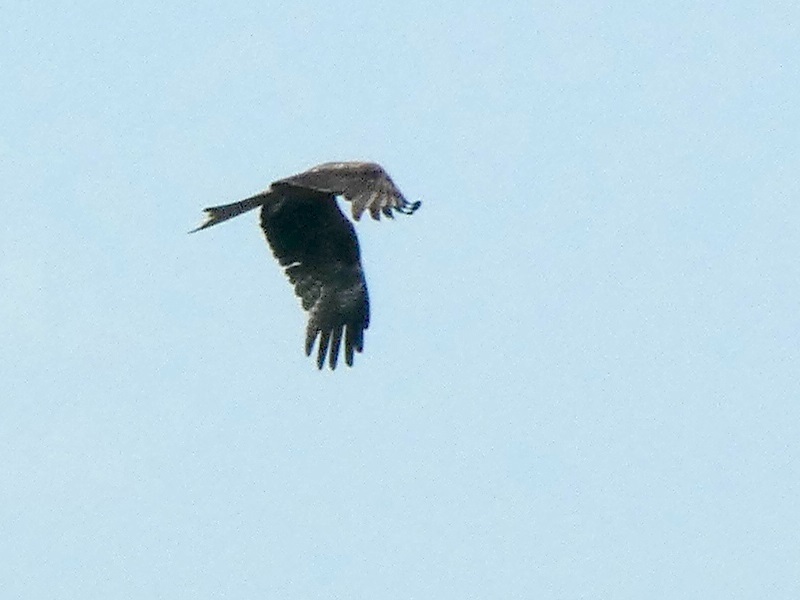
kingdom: Animalia
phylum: Chordata
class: Aves
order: Accipitriformes
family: Accipitridae
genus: Milvus
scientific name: Milvus migrans
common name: Black kite
